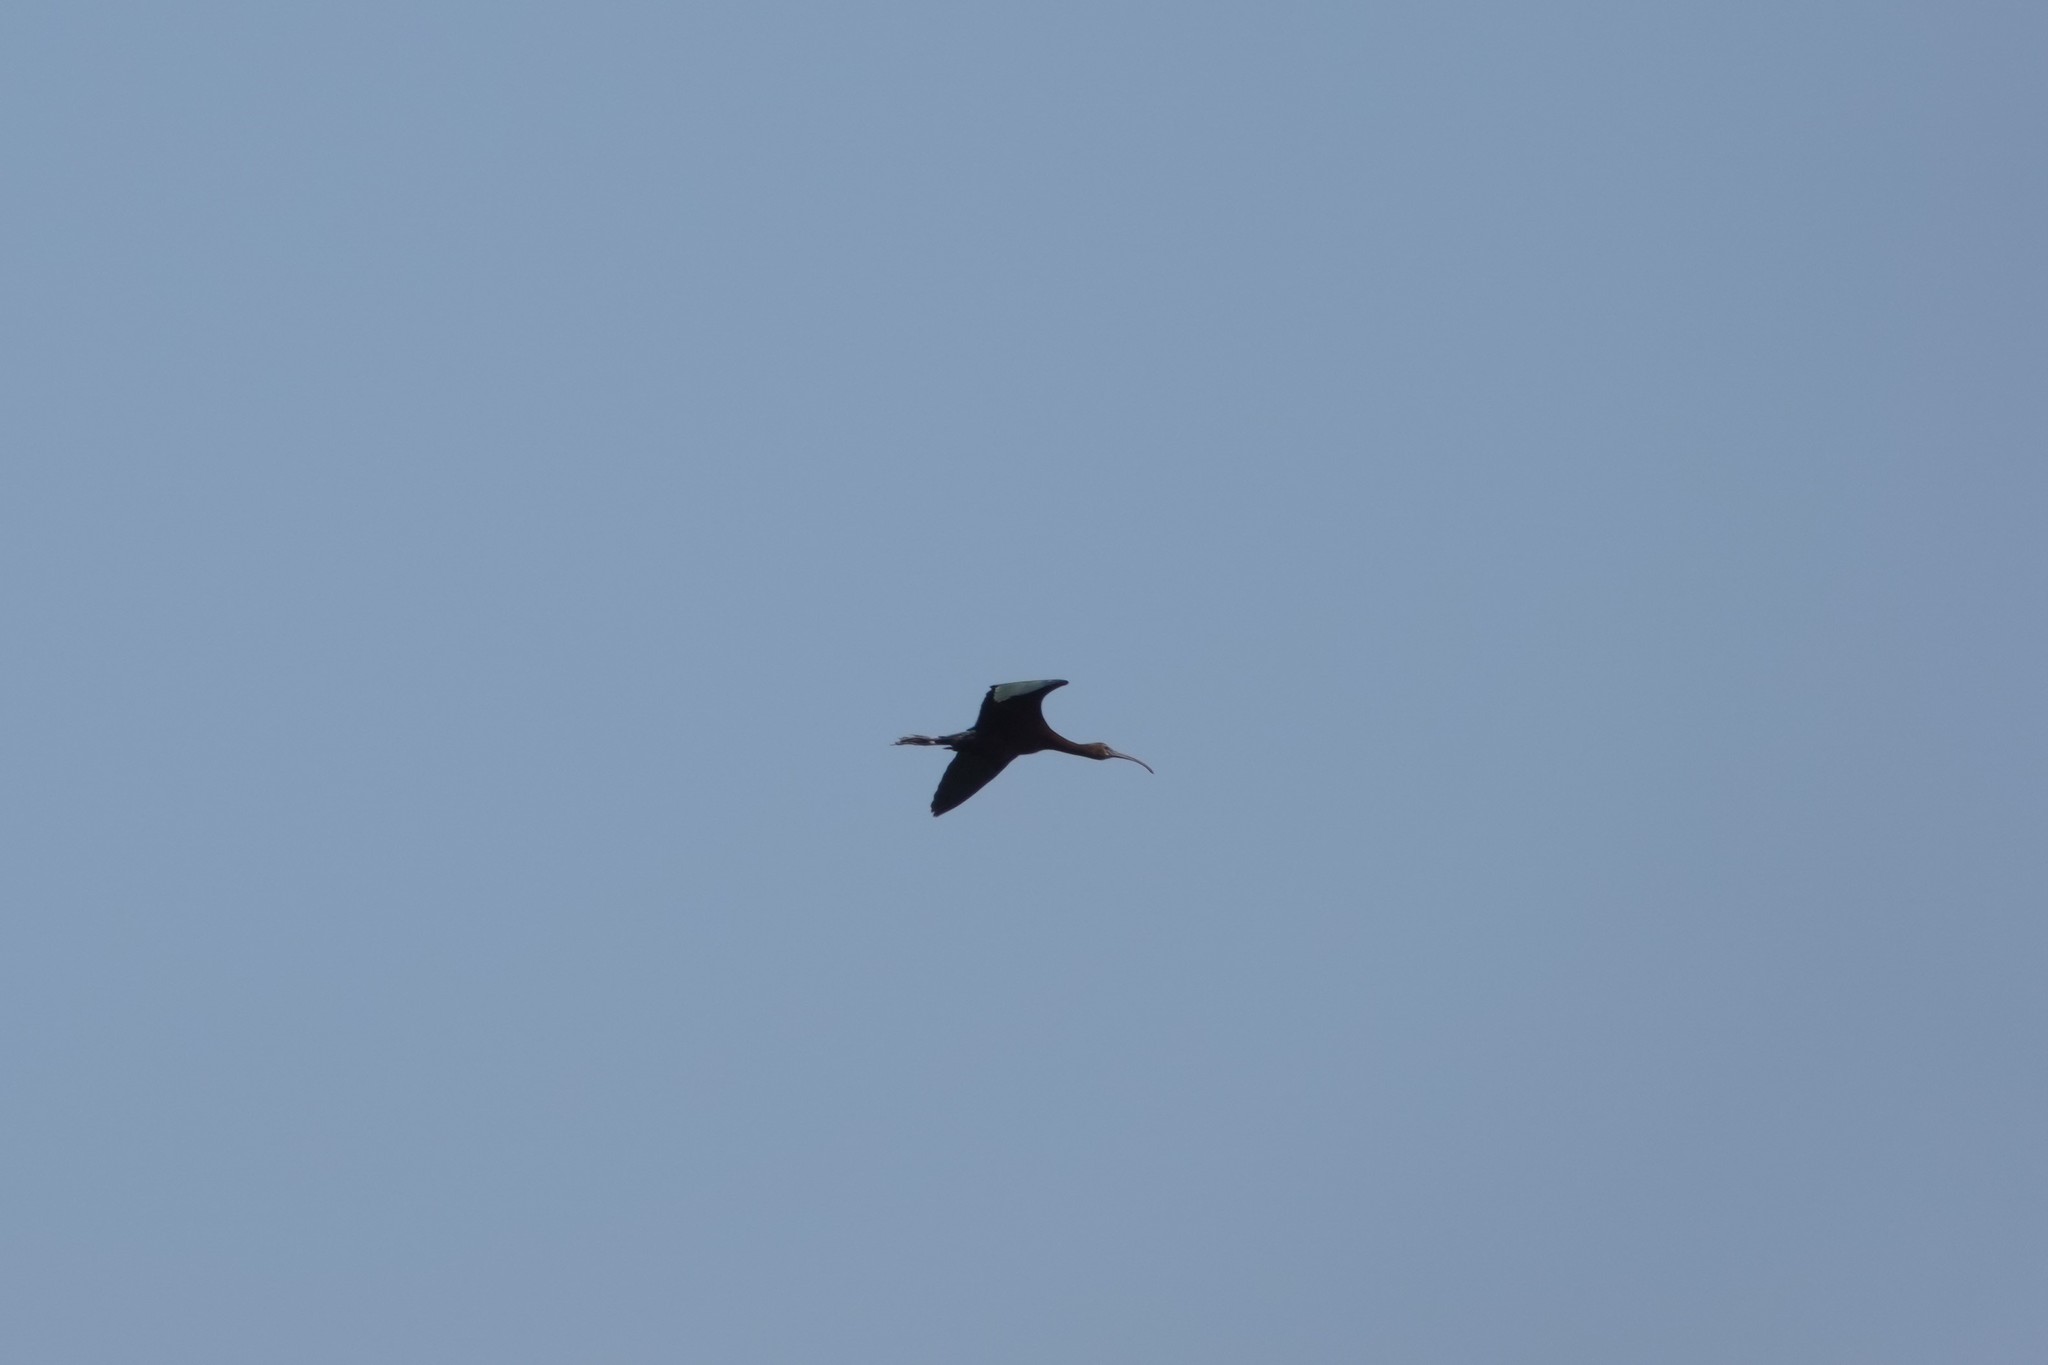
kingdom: Animalia
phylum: Chordata
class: Aves
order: Pelecaniformes
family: Threskiornithidae
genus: Plegadis
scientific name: Plegadis chihi
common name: White-faced ibis
